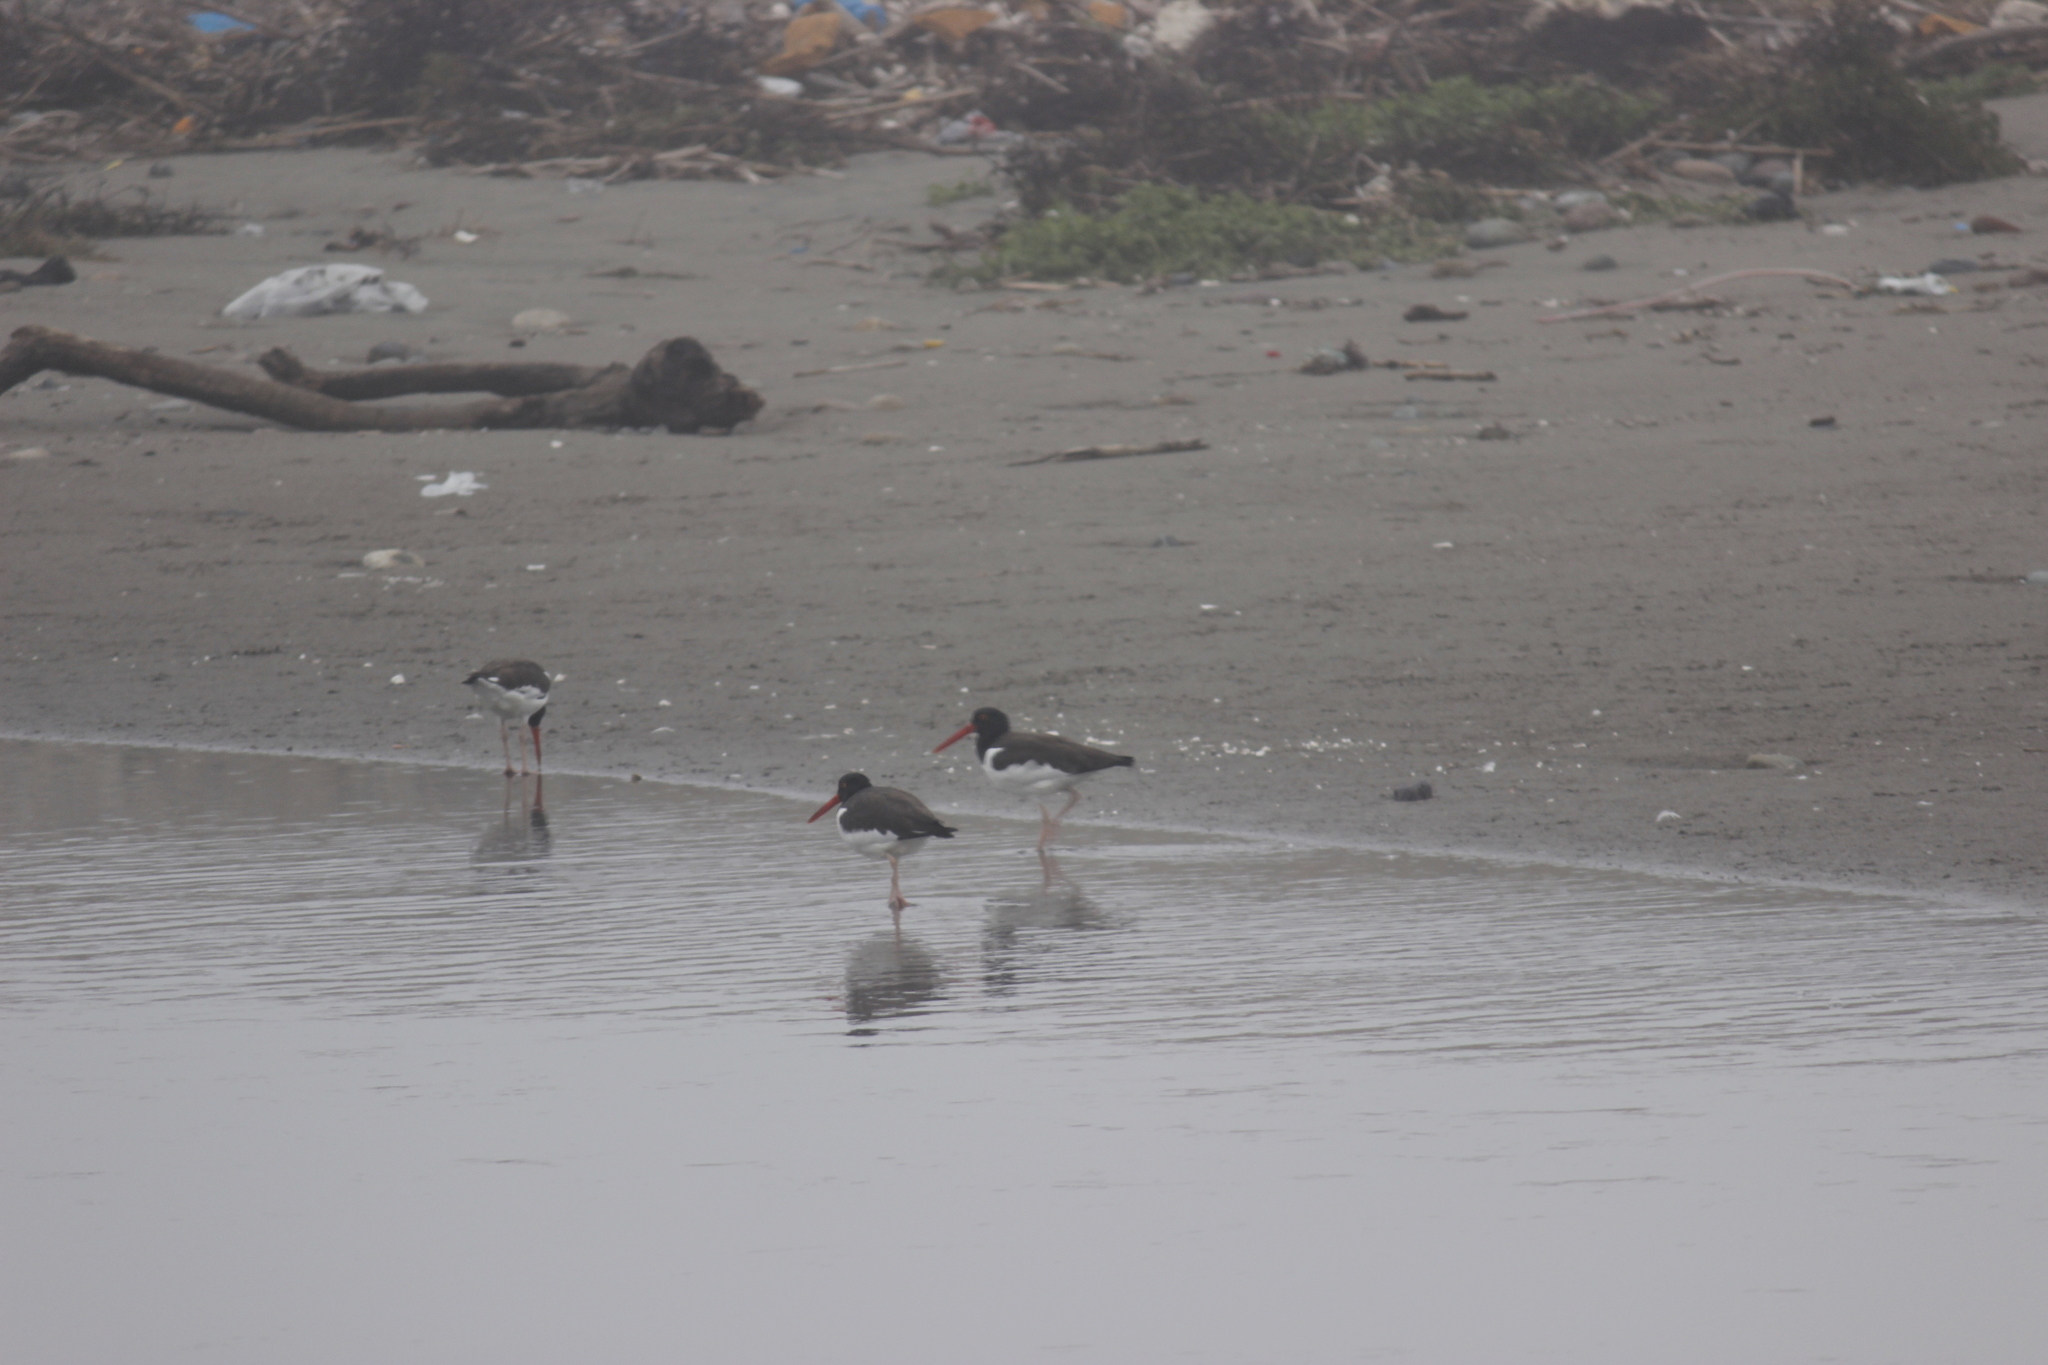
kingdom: Animalia
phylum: Chordata
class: Aves
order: Charadriiformes
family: Haematopodidae
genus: Haematopus
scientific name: Haematopus palliatus
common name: American oystercatcher
